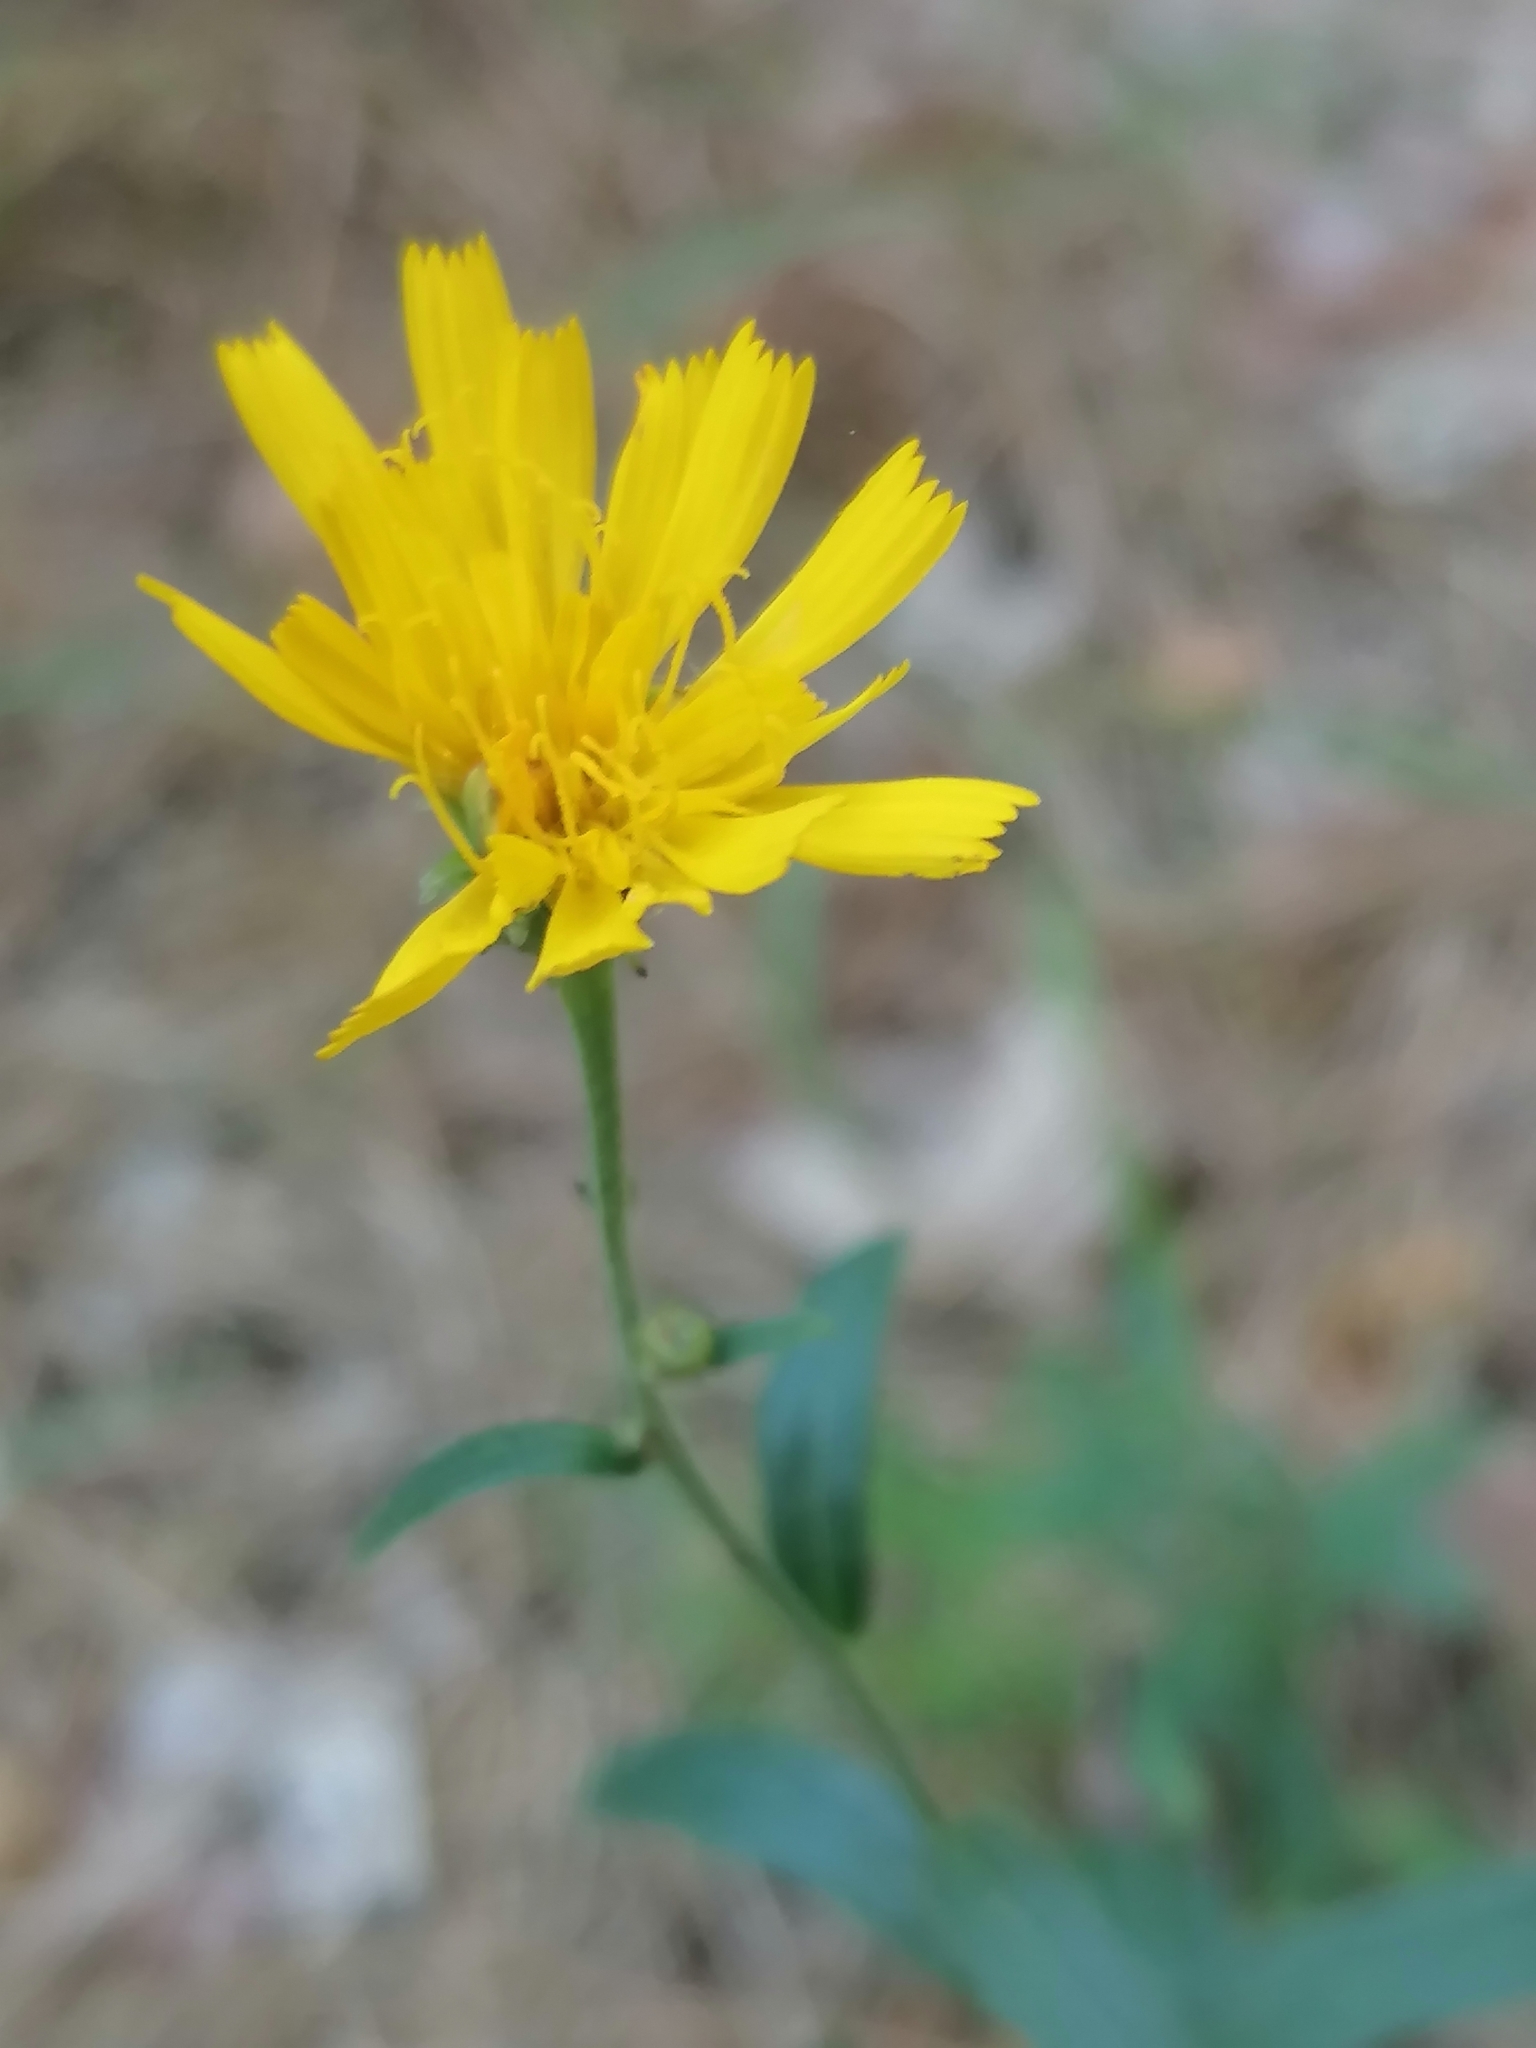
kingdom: Plantae
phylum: Tracheophyta
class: Magnoliopsida
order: Asterales
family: Asteraceae
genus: Hieracium
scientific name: Hieracium umbellatum
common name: Northern hawkweed
